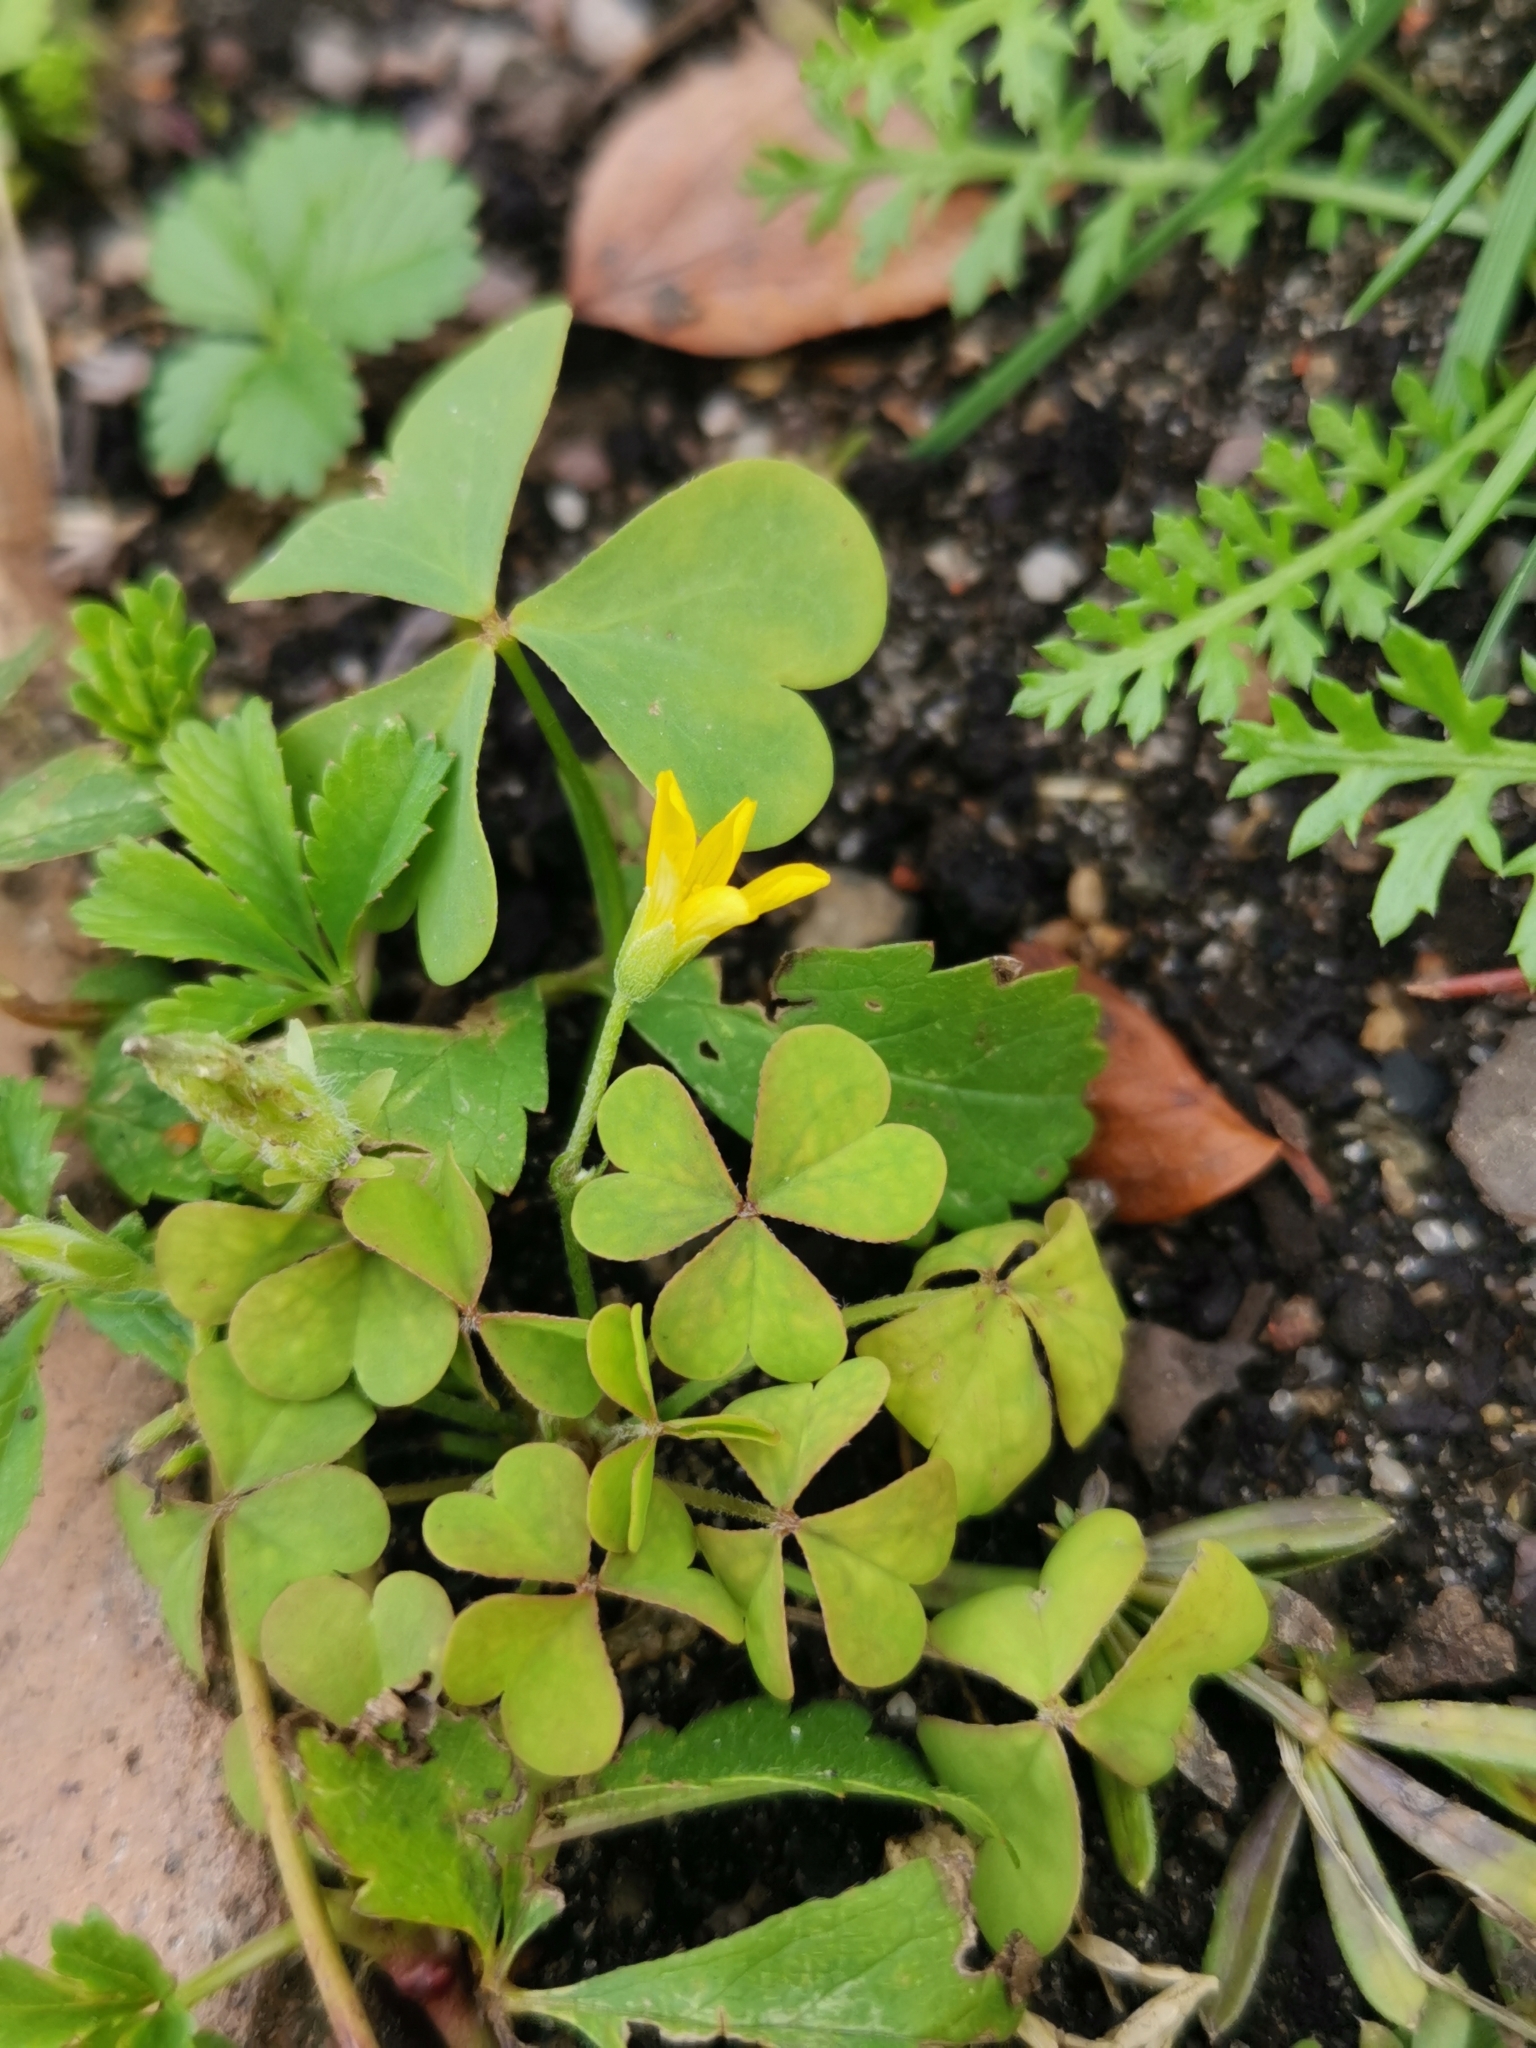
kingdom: Plantae
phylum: Tracheophyta
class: Magnoliopsida
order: Oxalidales
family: Oxalidaceae
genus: Oxalis
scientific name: Oxalis corniculata
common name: Procumbent yellow-sorrel
